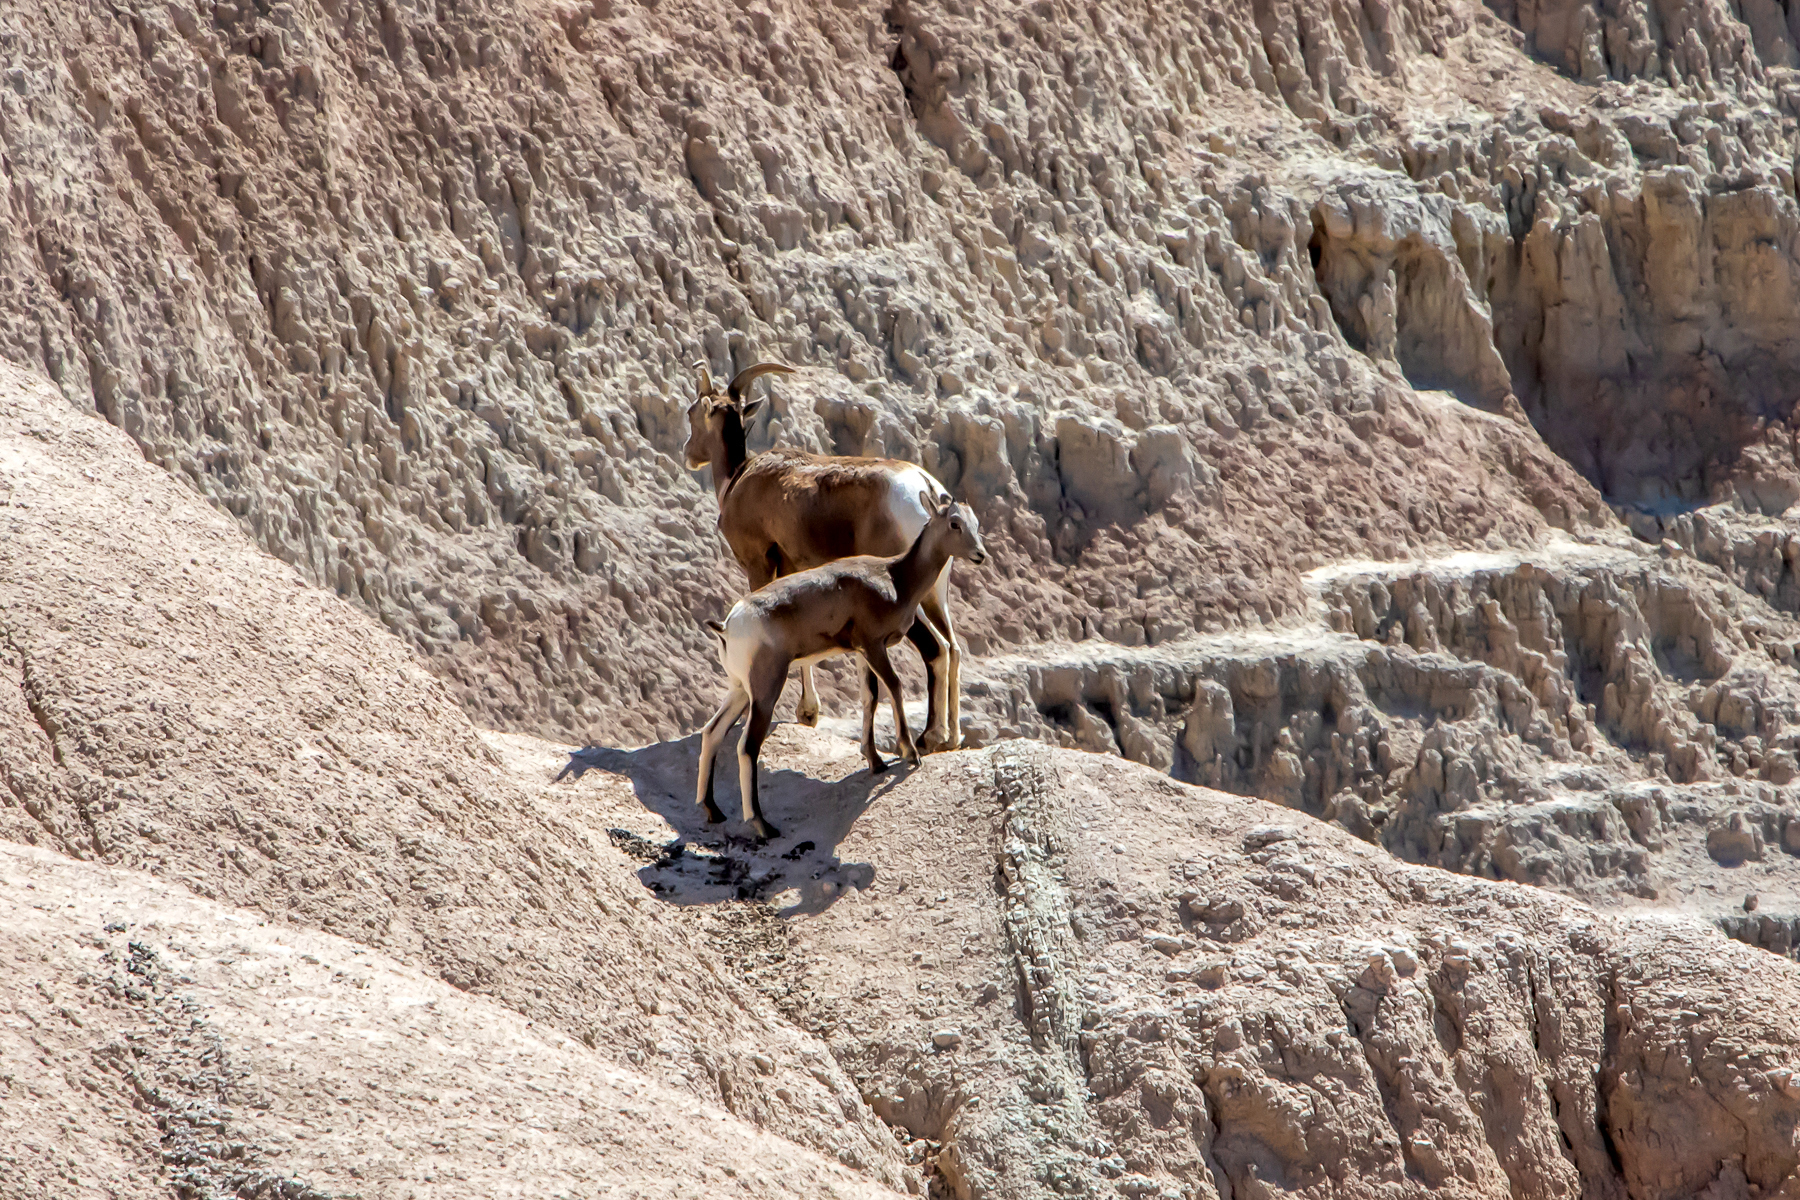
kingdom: Animalia
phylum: Chordata
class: Mammalia
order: Artiodactyla
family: Bovidae
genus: Ovis
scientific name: Ovis canadensis
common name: Bighorn sheep
